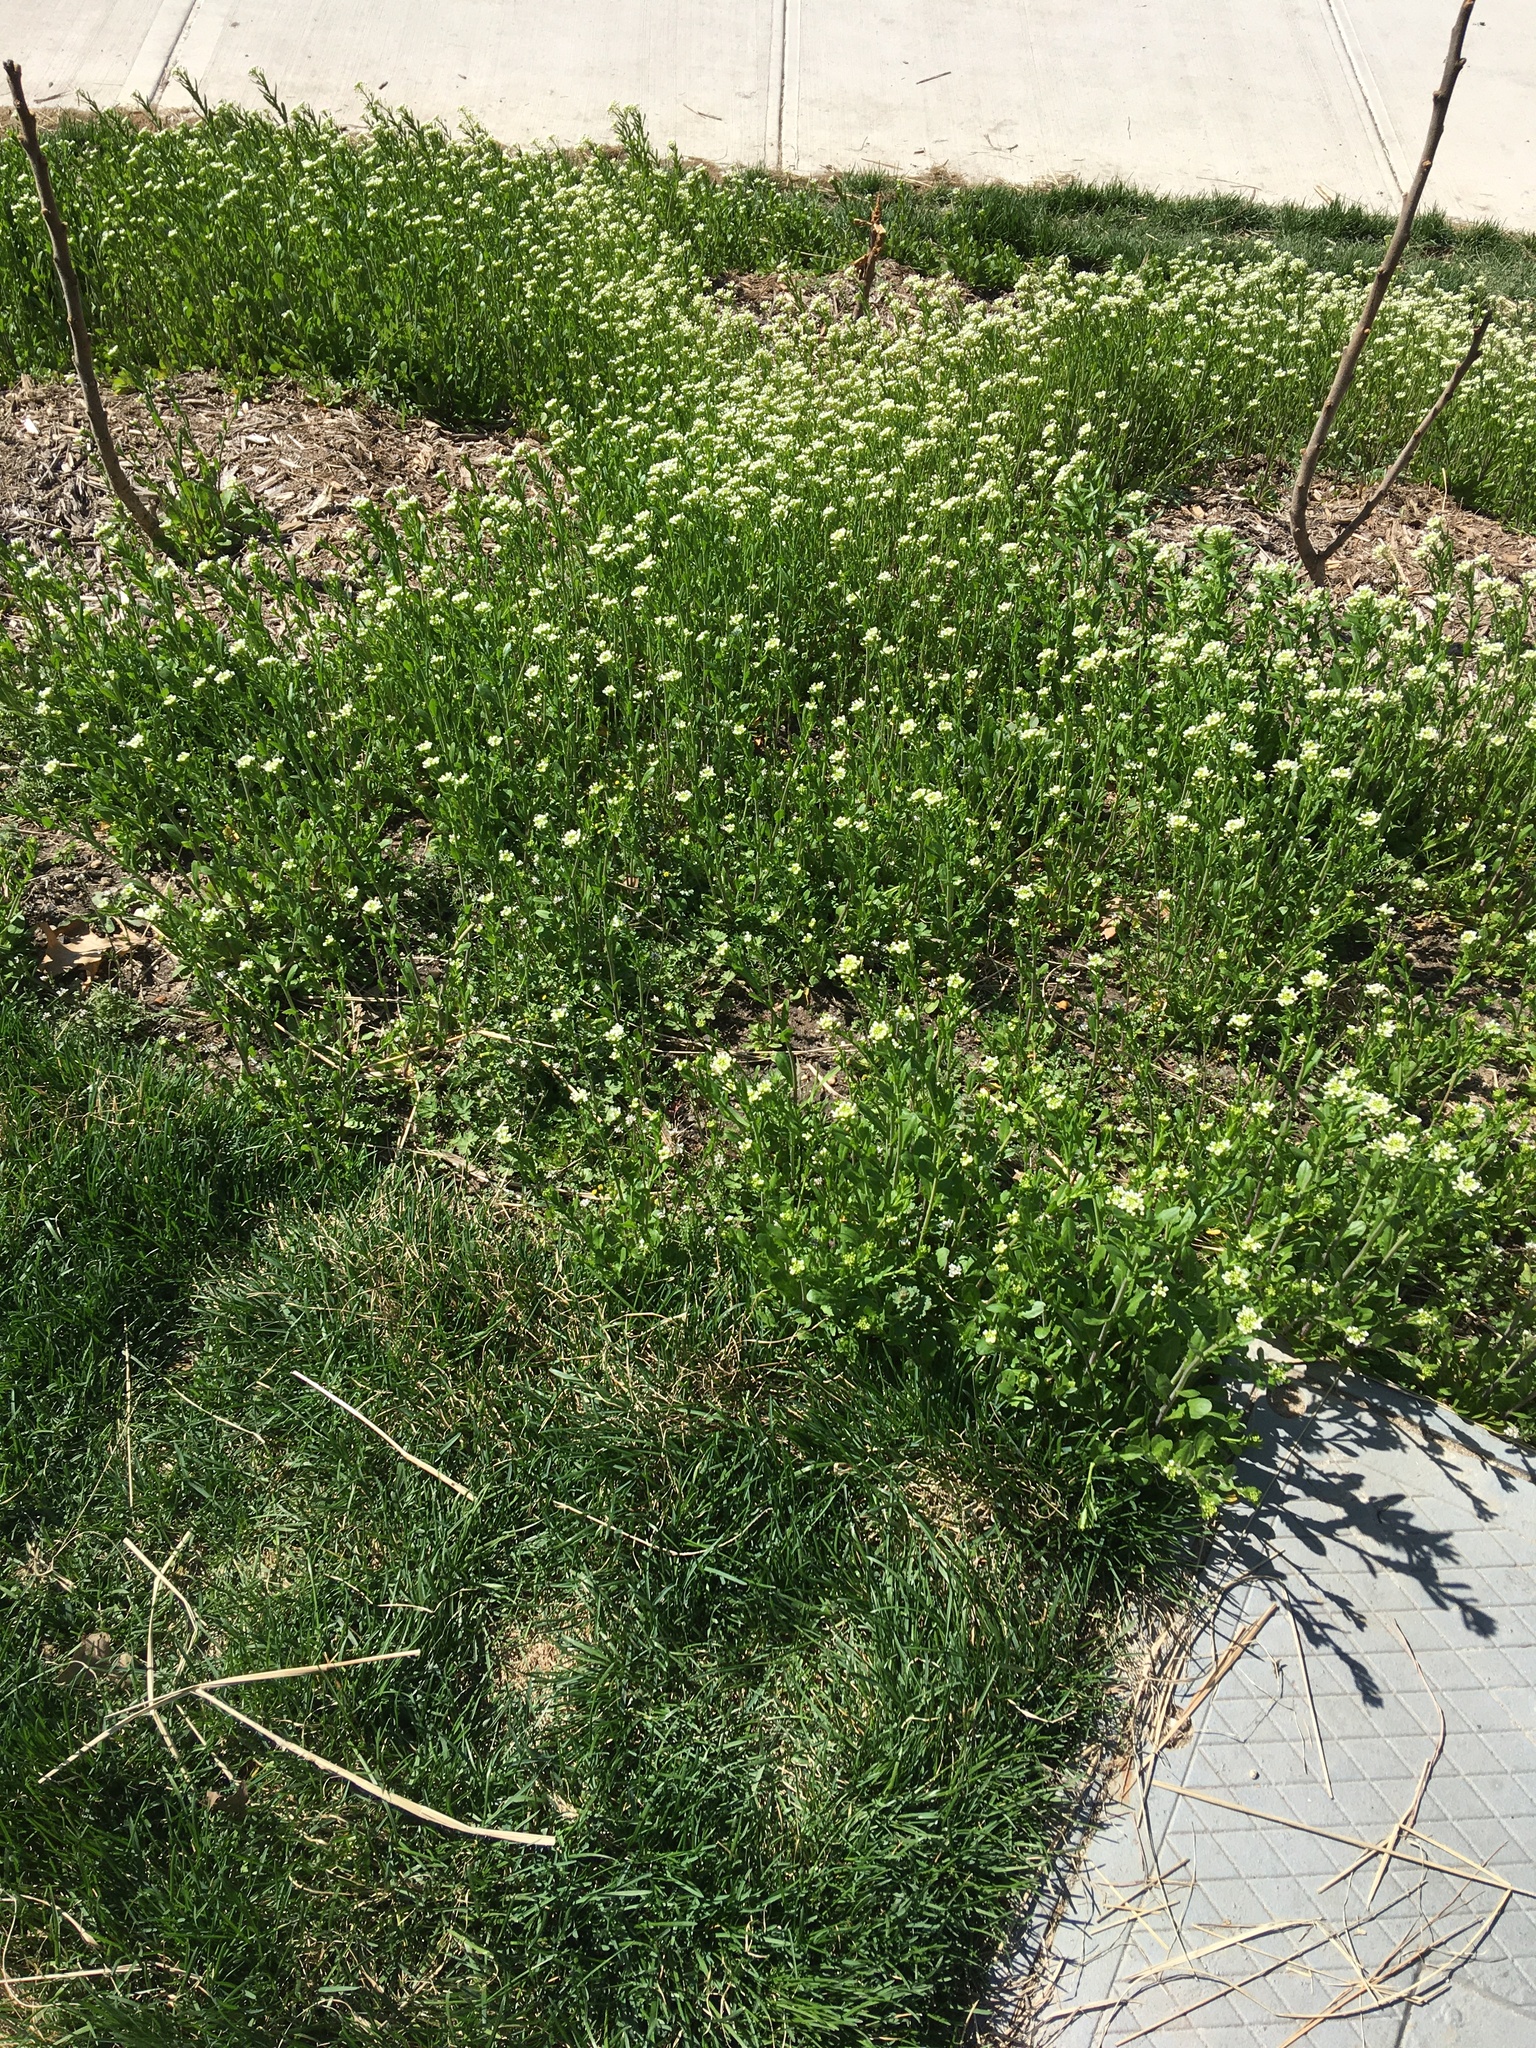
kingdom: Plantae
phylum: Tracheophyta
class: Magnoliopsida
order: Brassicales
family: Brassicaceae
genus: Mummenhoffia
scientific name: Mummenhoffia alliacea
